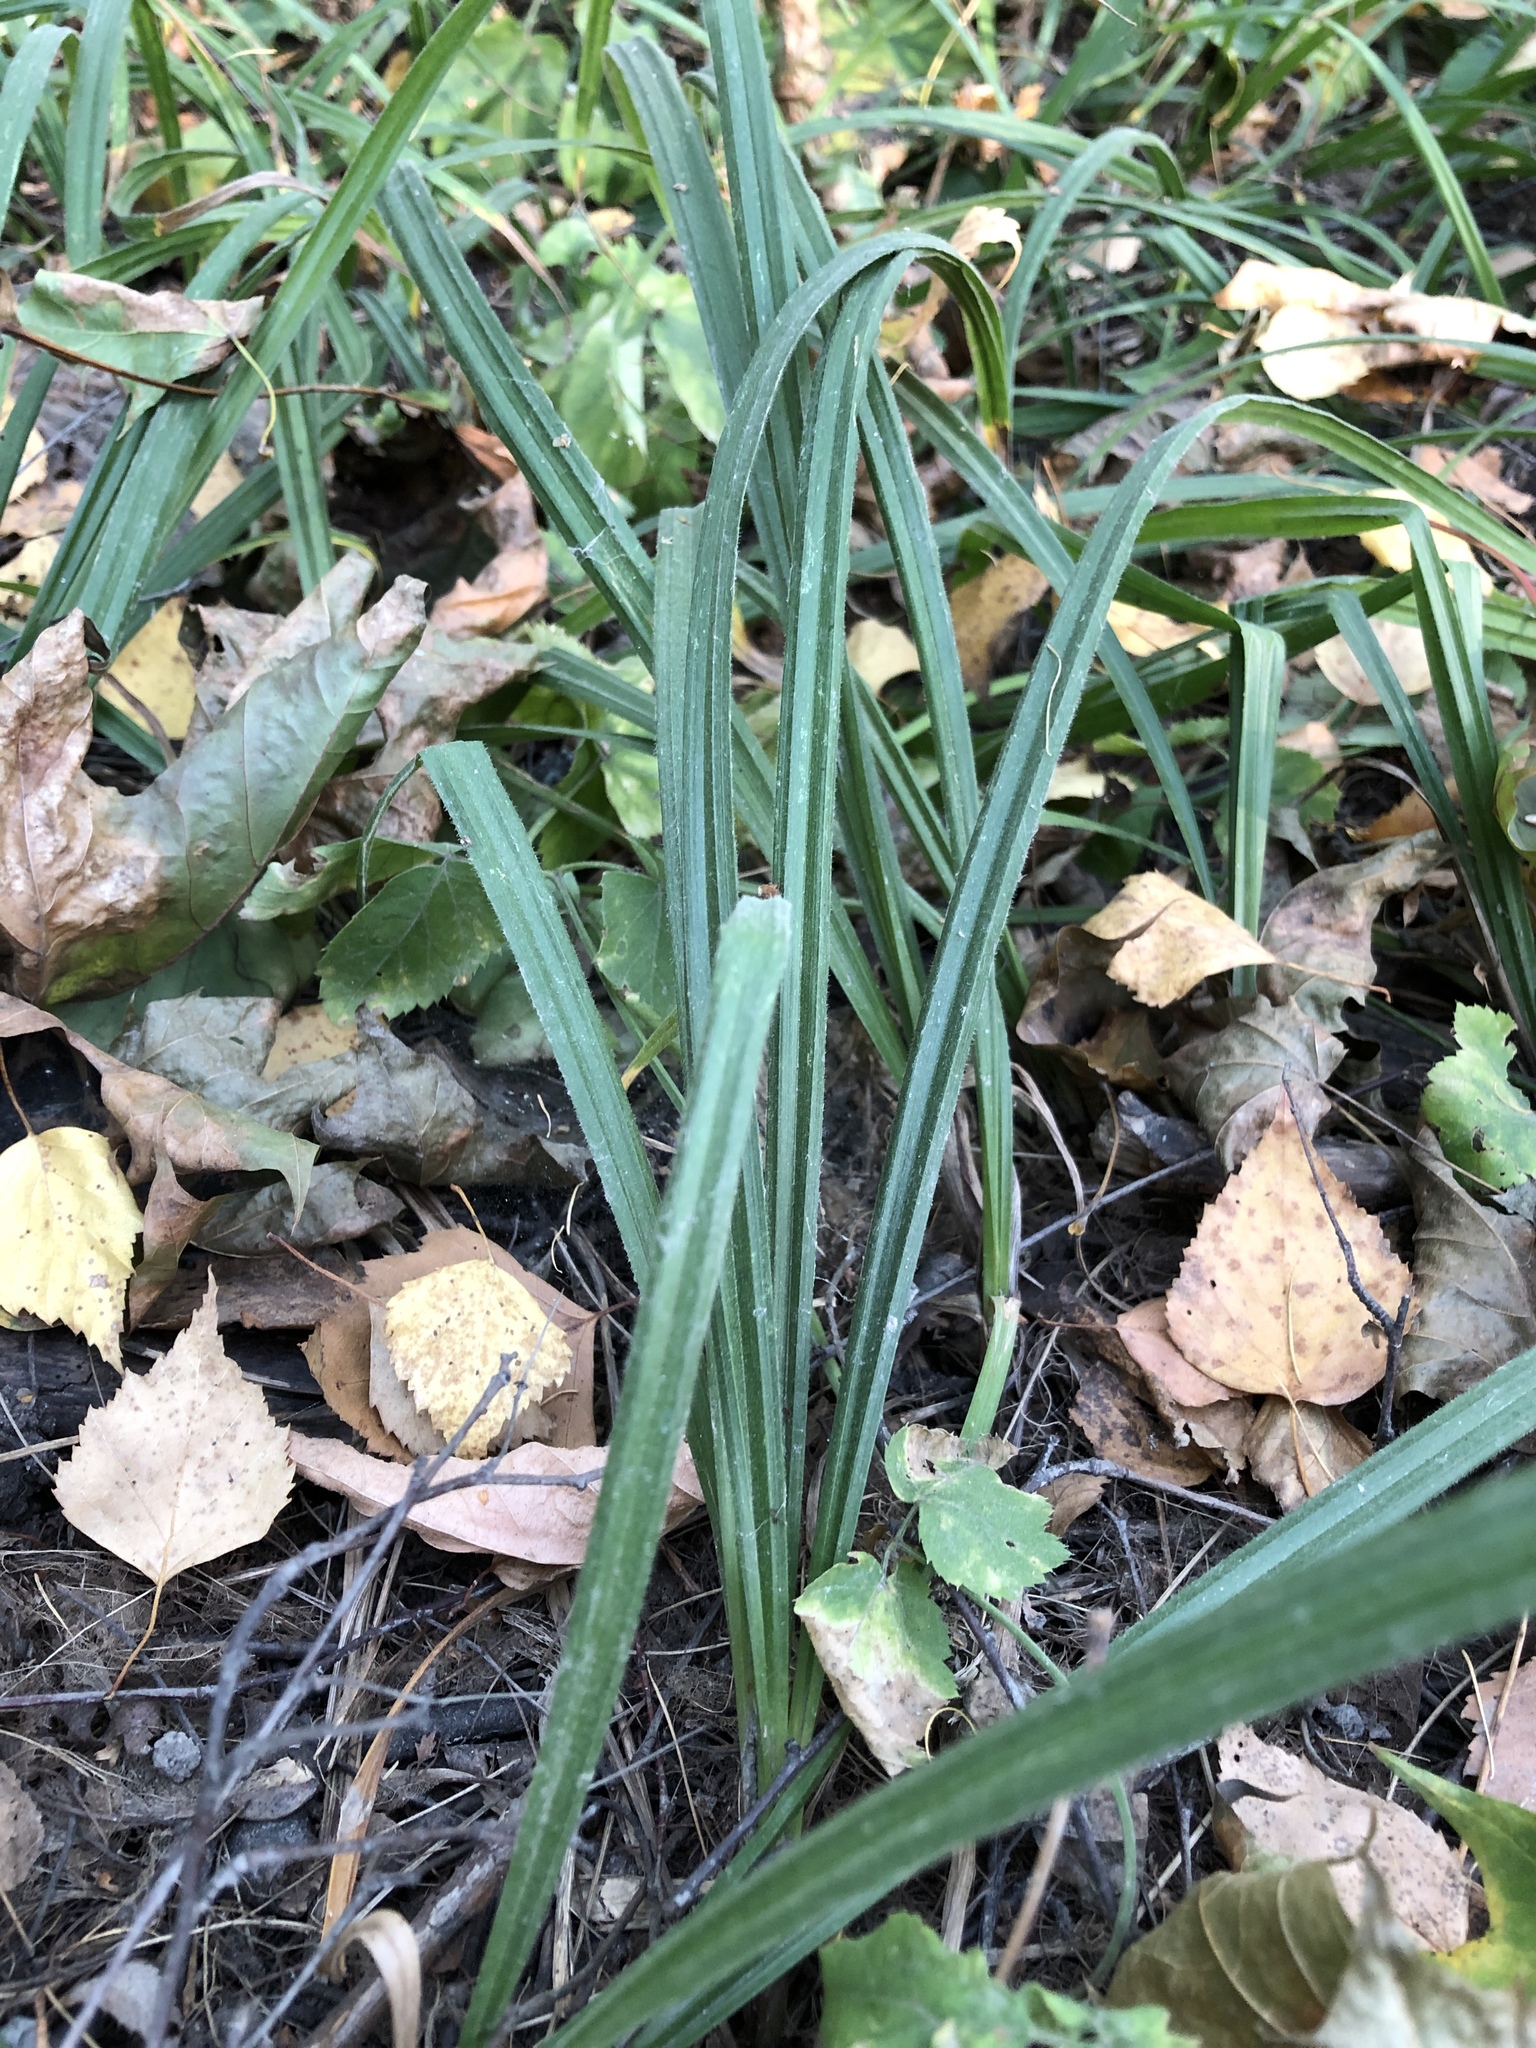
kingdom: Plantae
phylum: Tracheophyta
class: Liliopsida
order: Poales
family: Cyperaceae
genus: Carex
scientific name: Carex pilosa
